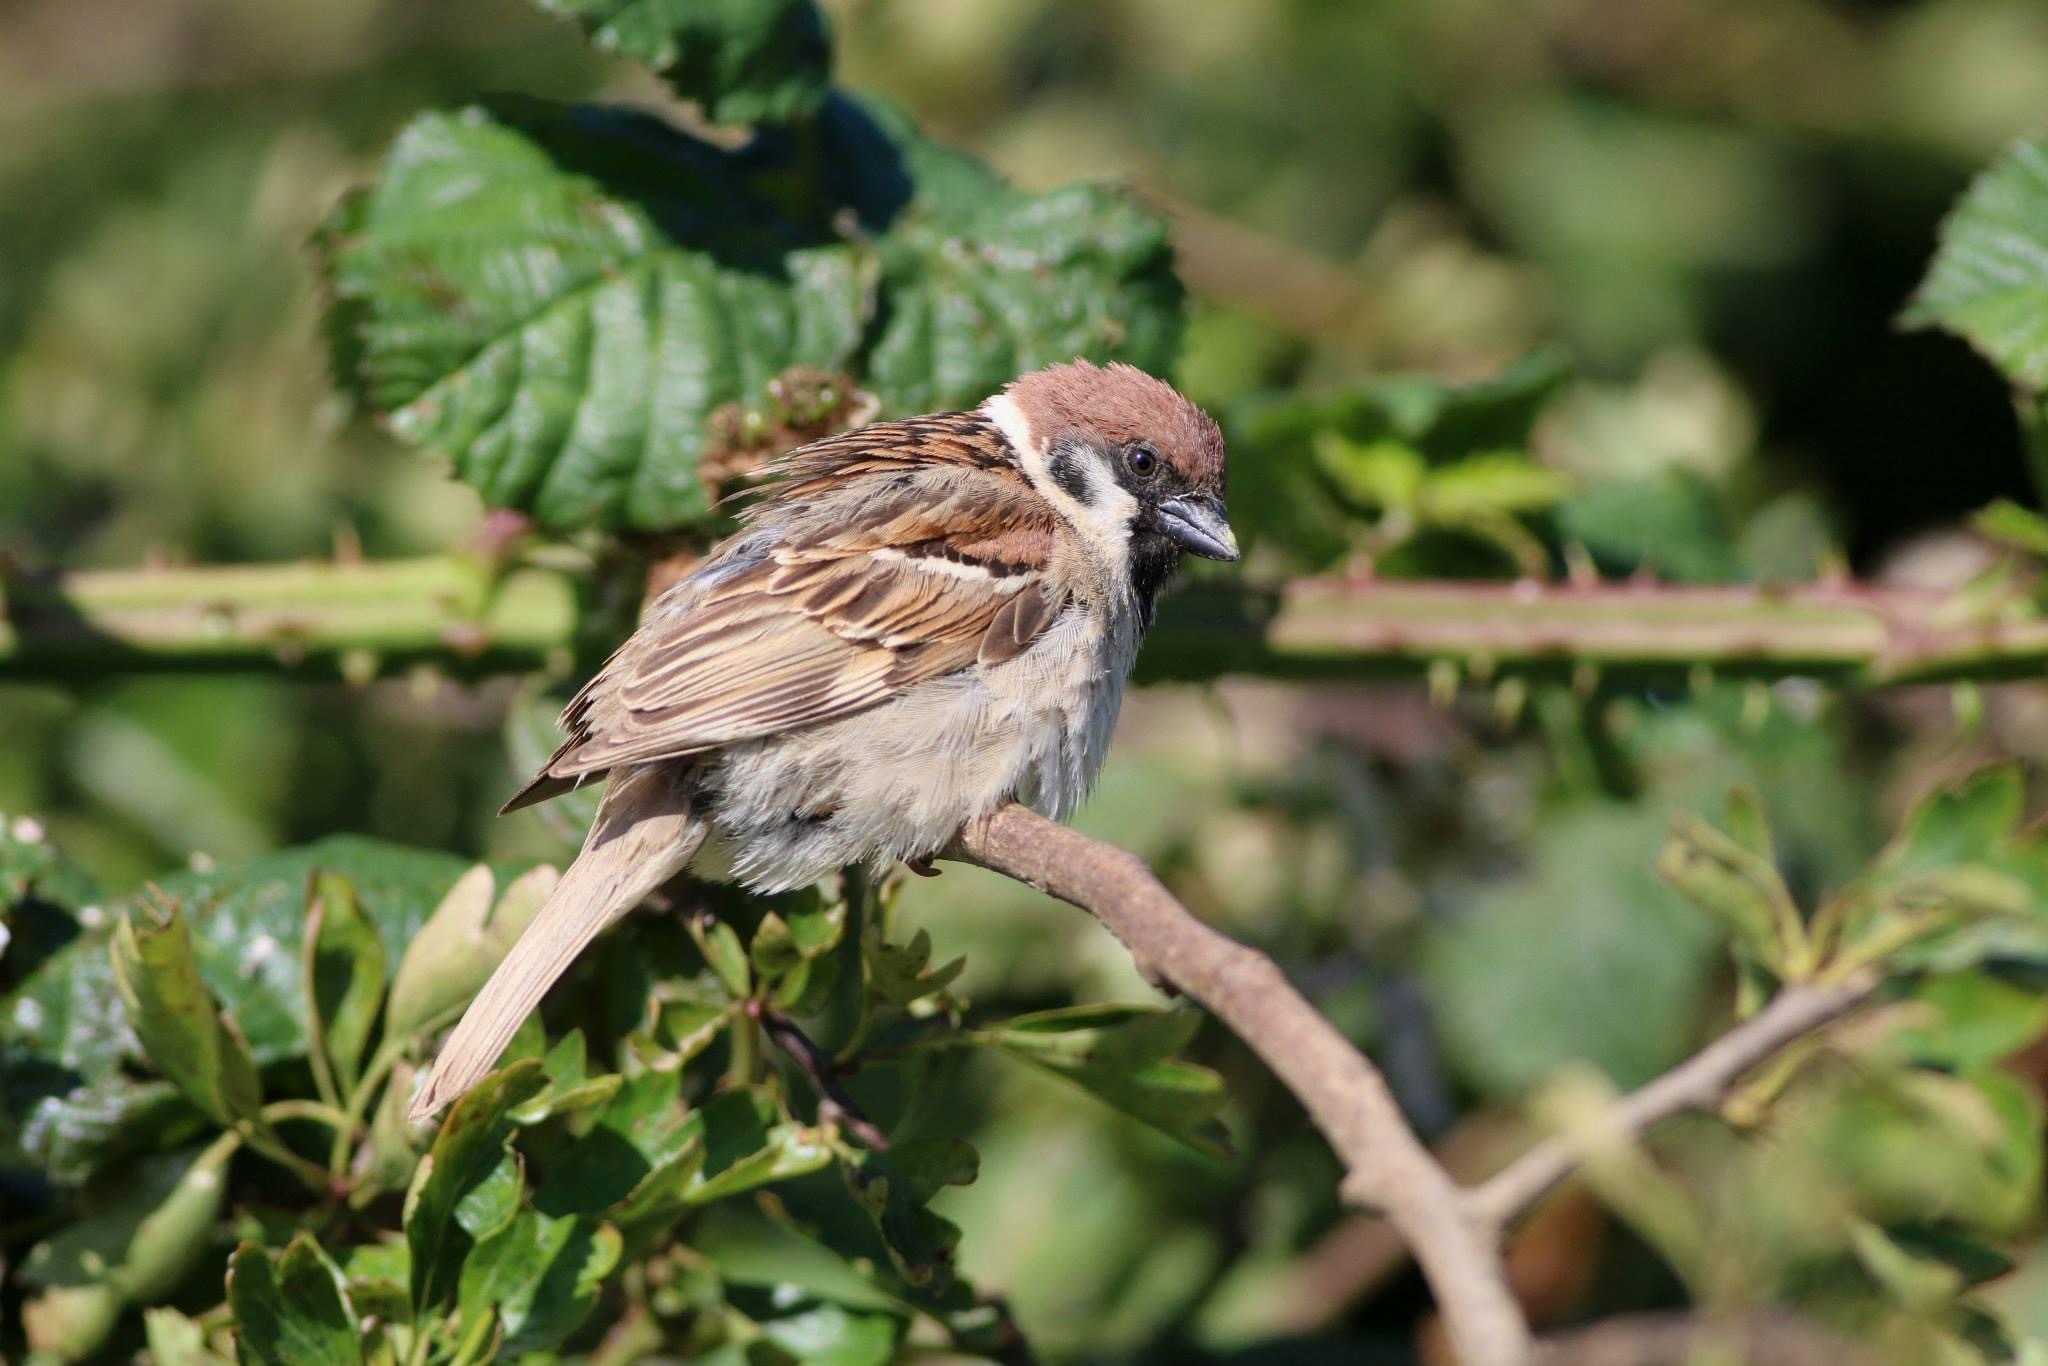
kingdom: Animalia
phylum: Chordata
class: Aves
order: Passeriformes
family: Passeridae
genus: Passer
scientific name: Passer montanus
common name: Eurasian tree sparrow
